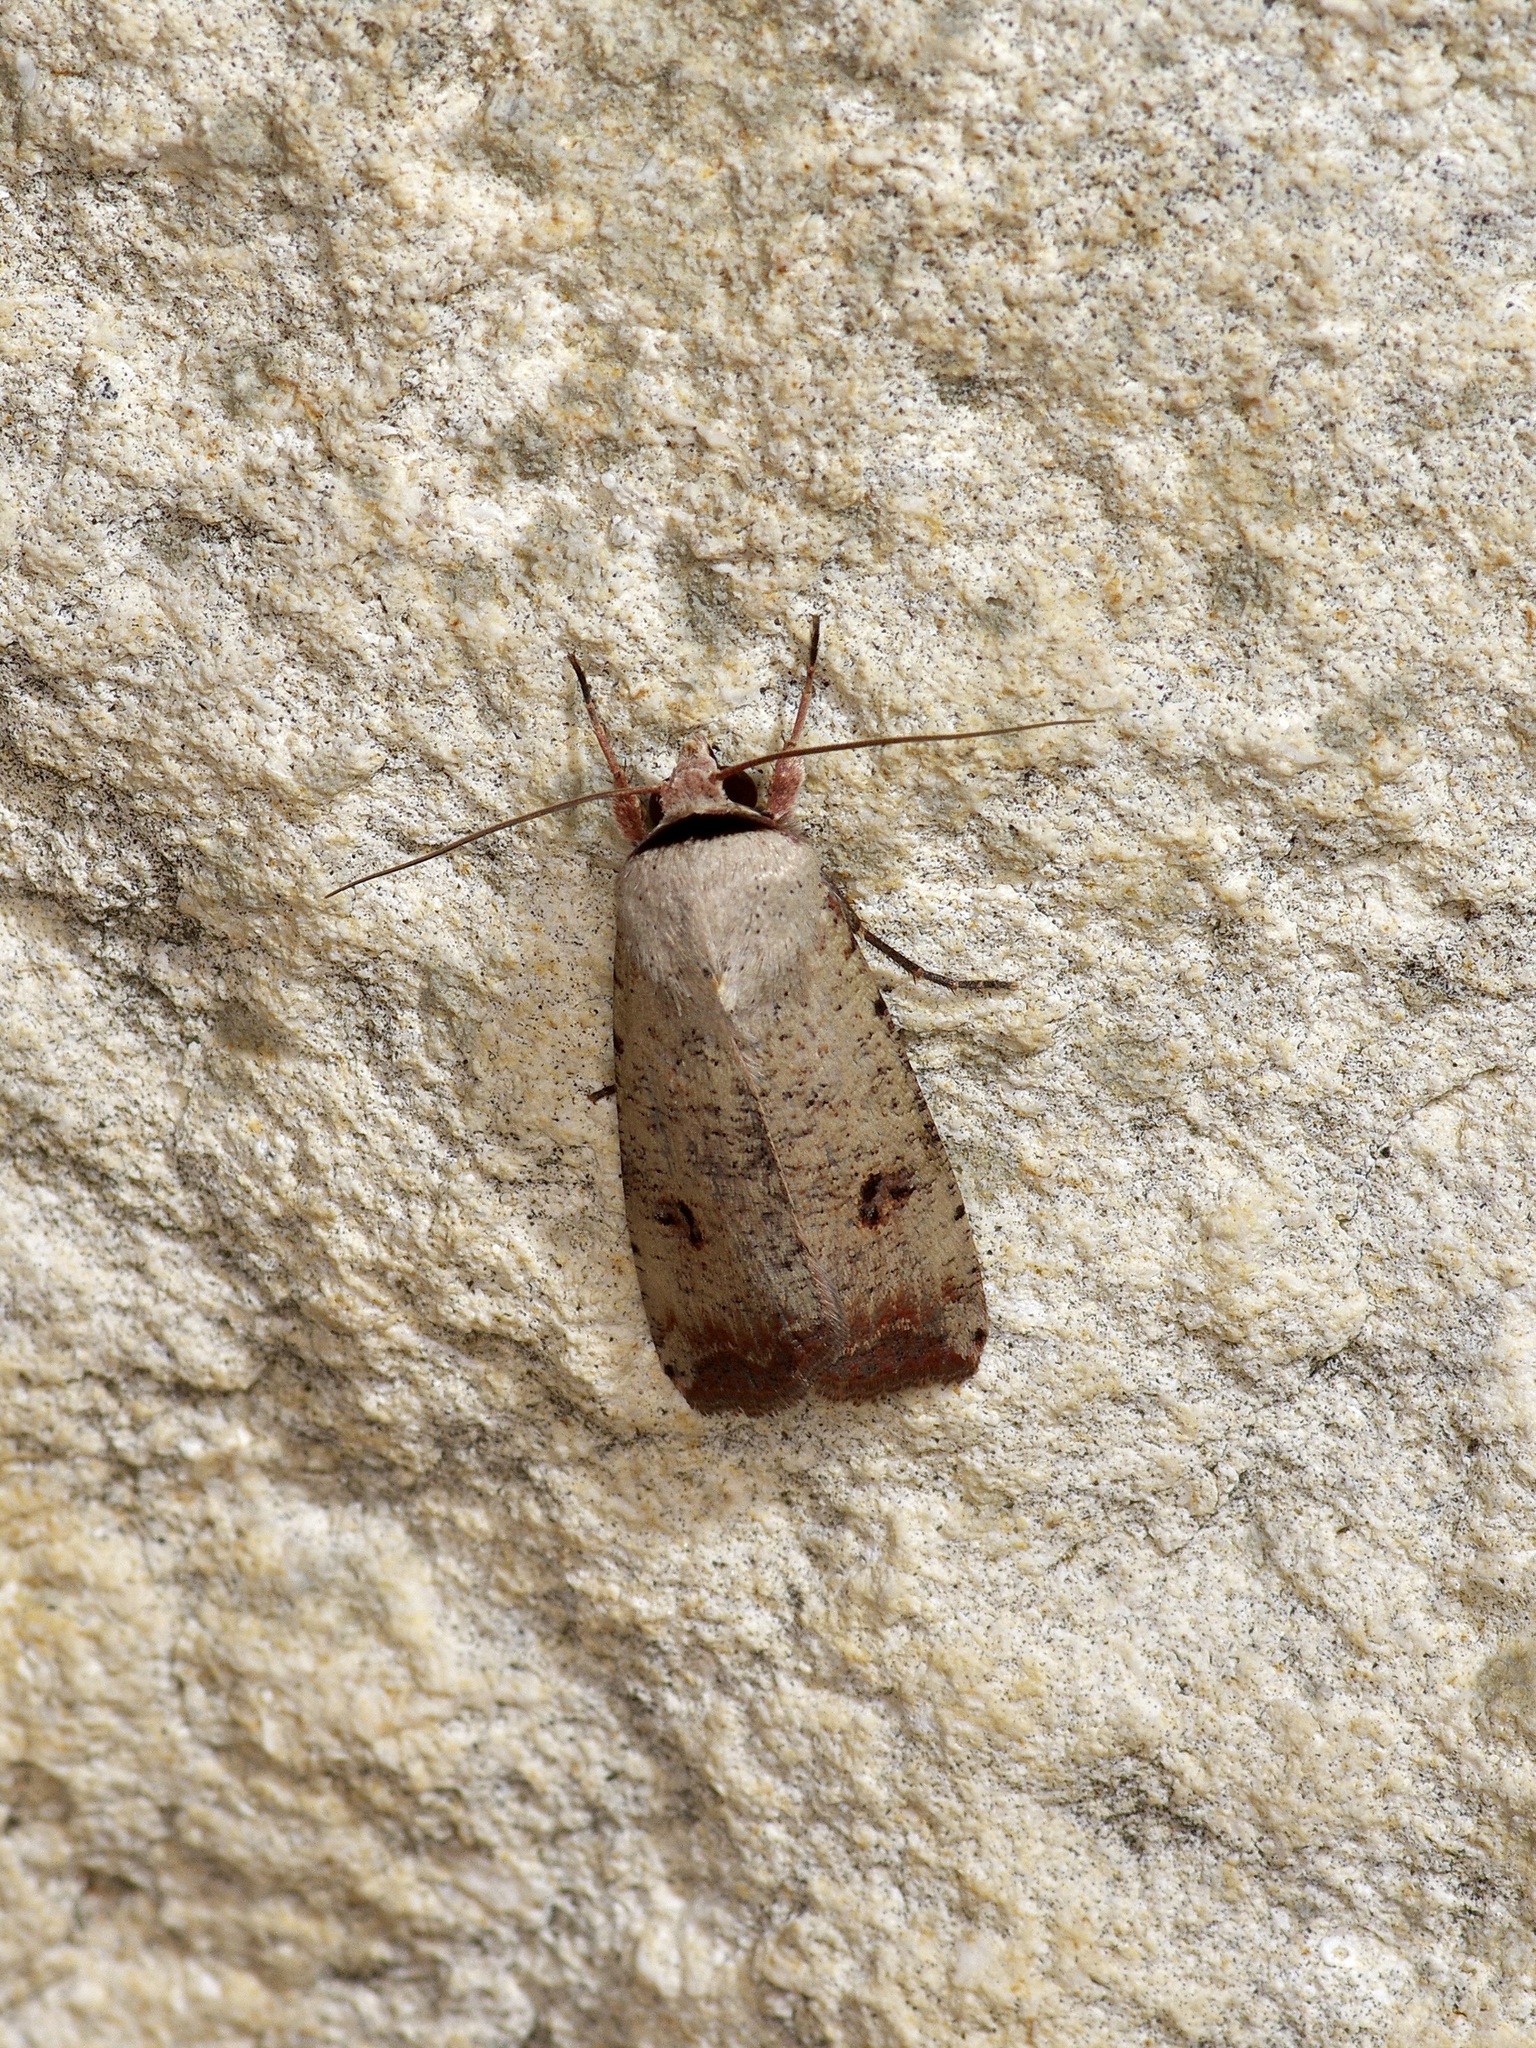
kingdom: Animalia
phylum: Arthropoda
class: Insecta
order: Lepidoptera
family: Noctuidae
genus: Anicla
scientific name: Anicla infecta
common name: Green cutworm
